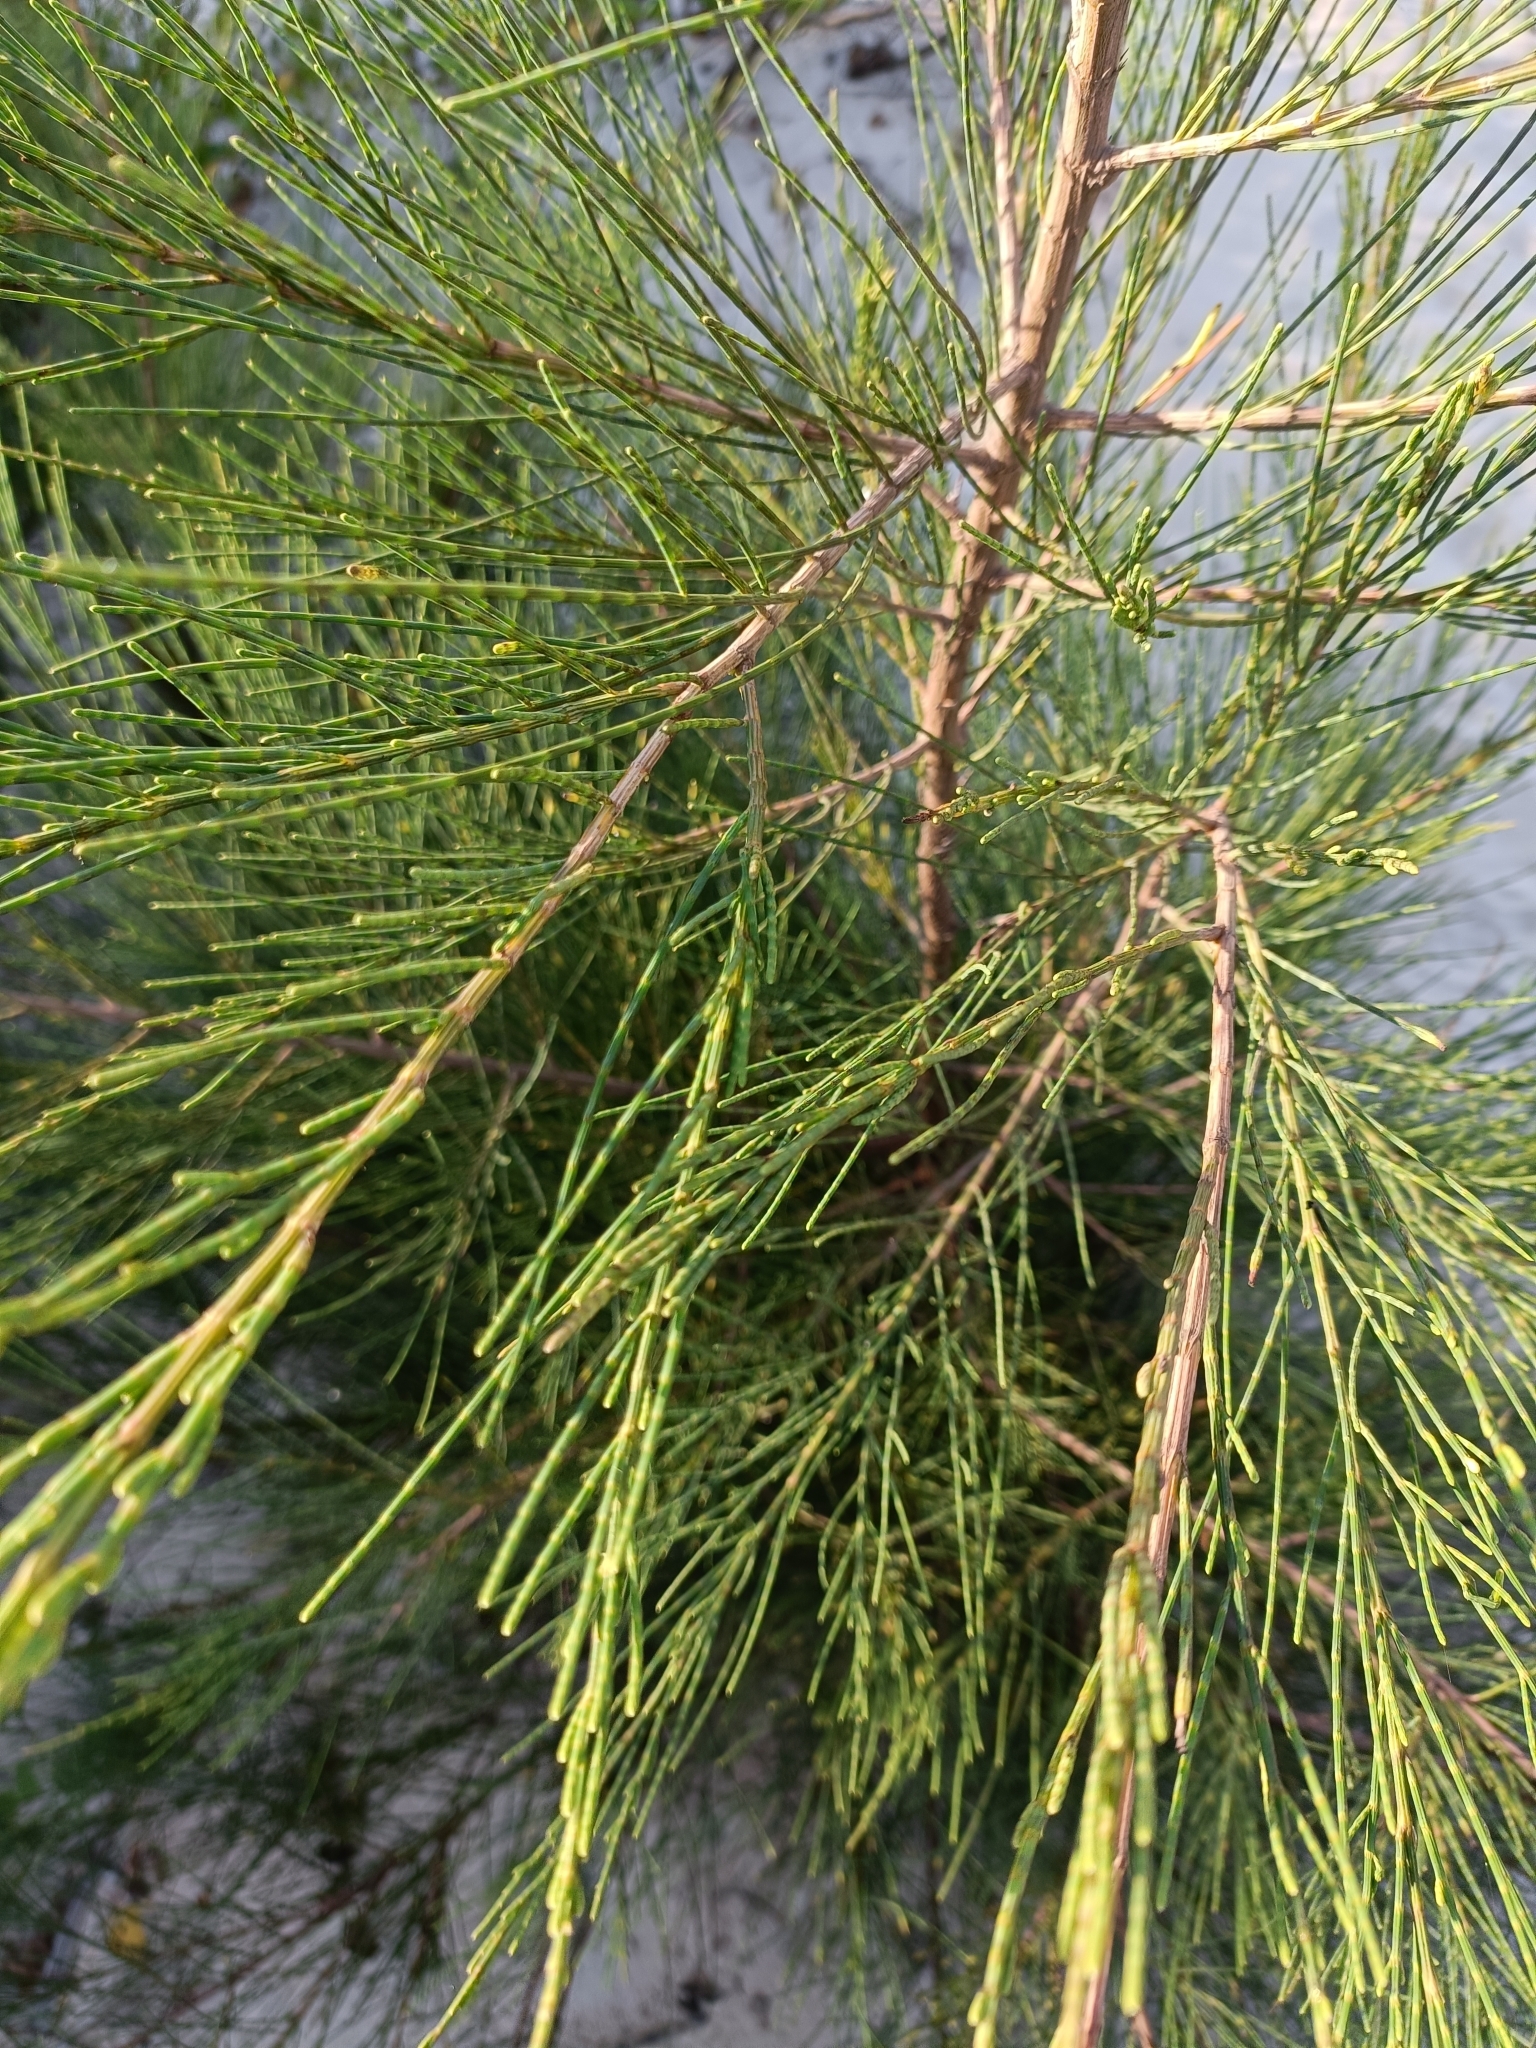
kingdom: Plantae
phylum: Tracheophyta
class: Magnoliopsida
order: Fagales
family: Casuarinaceae
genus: Casuarina
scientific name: Casuarina equisetifolia
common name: Beach sheoak
